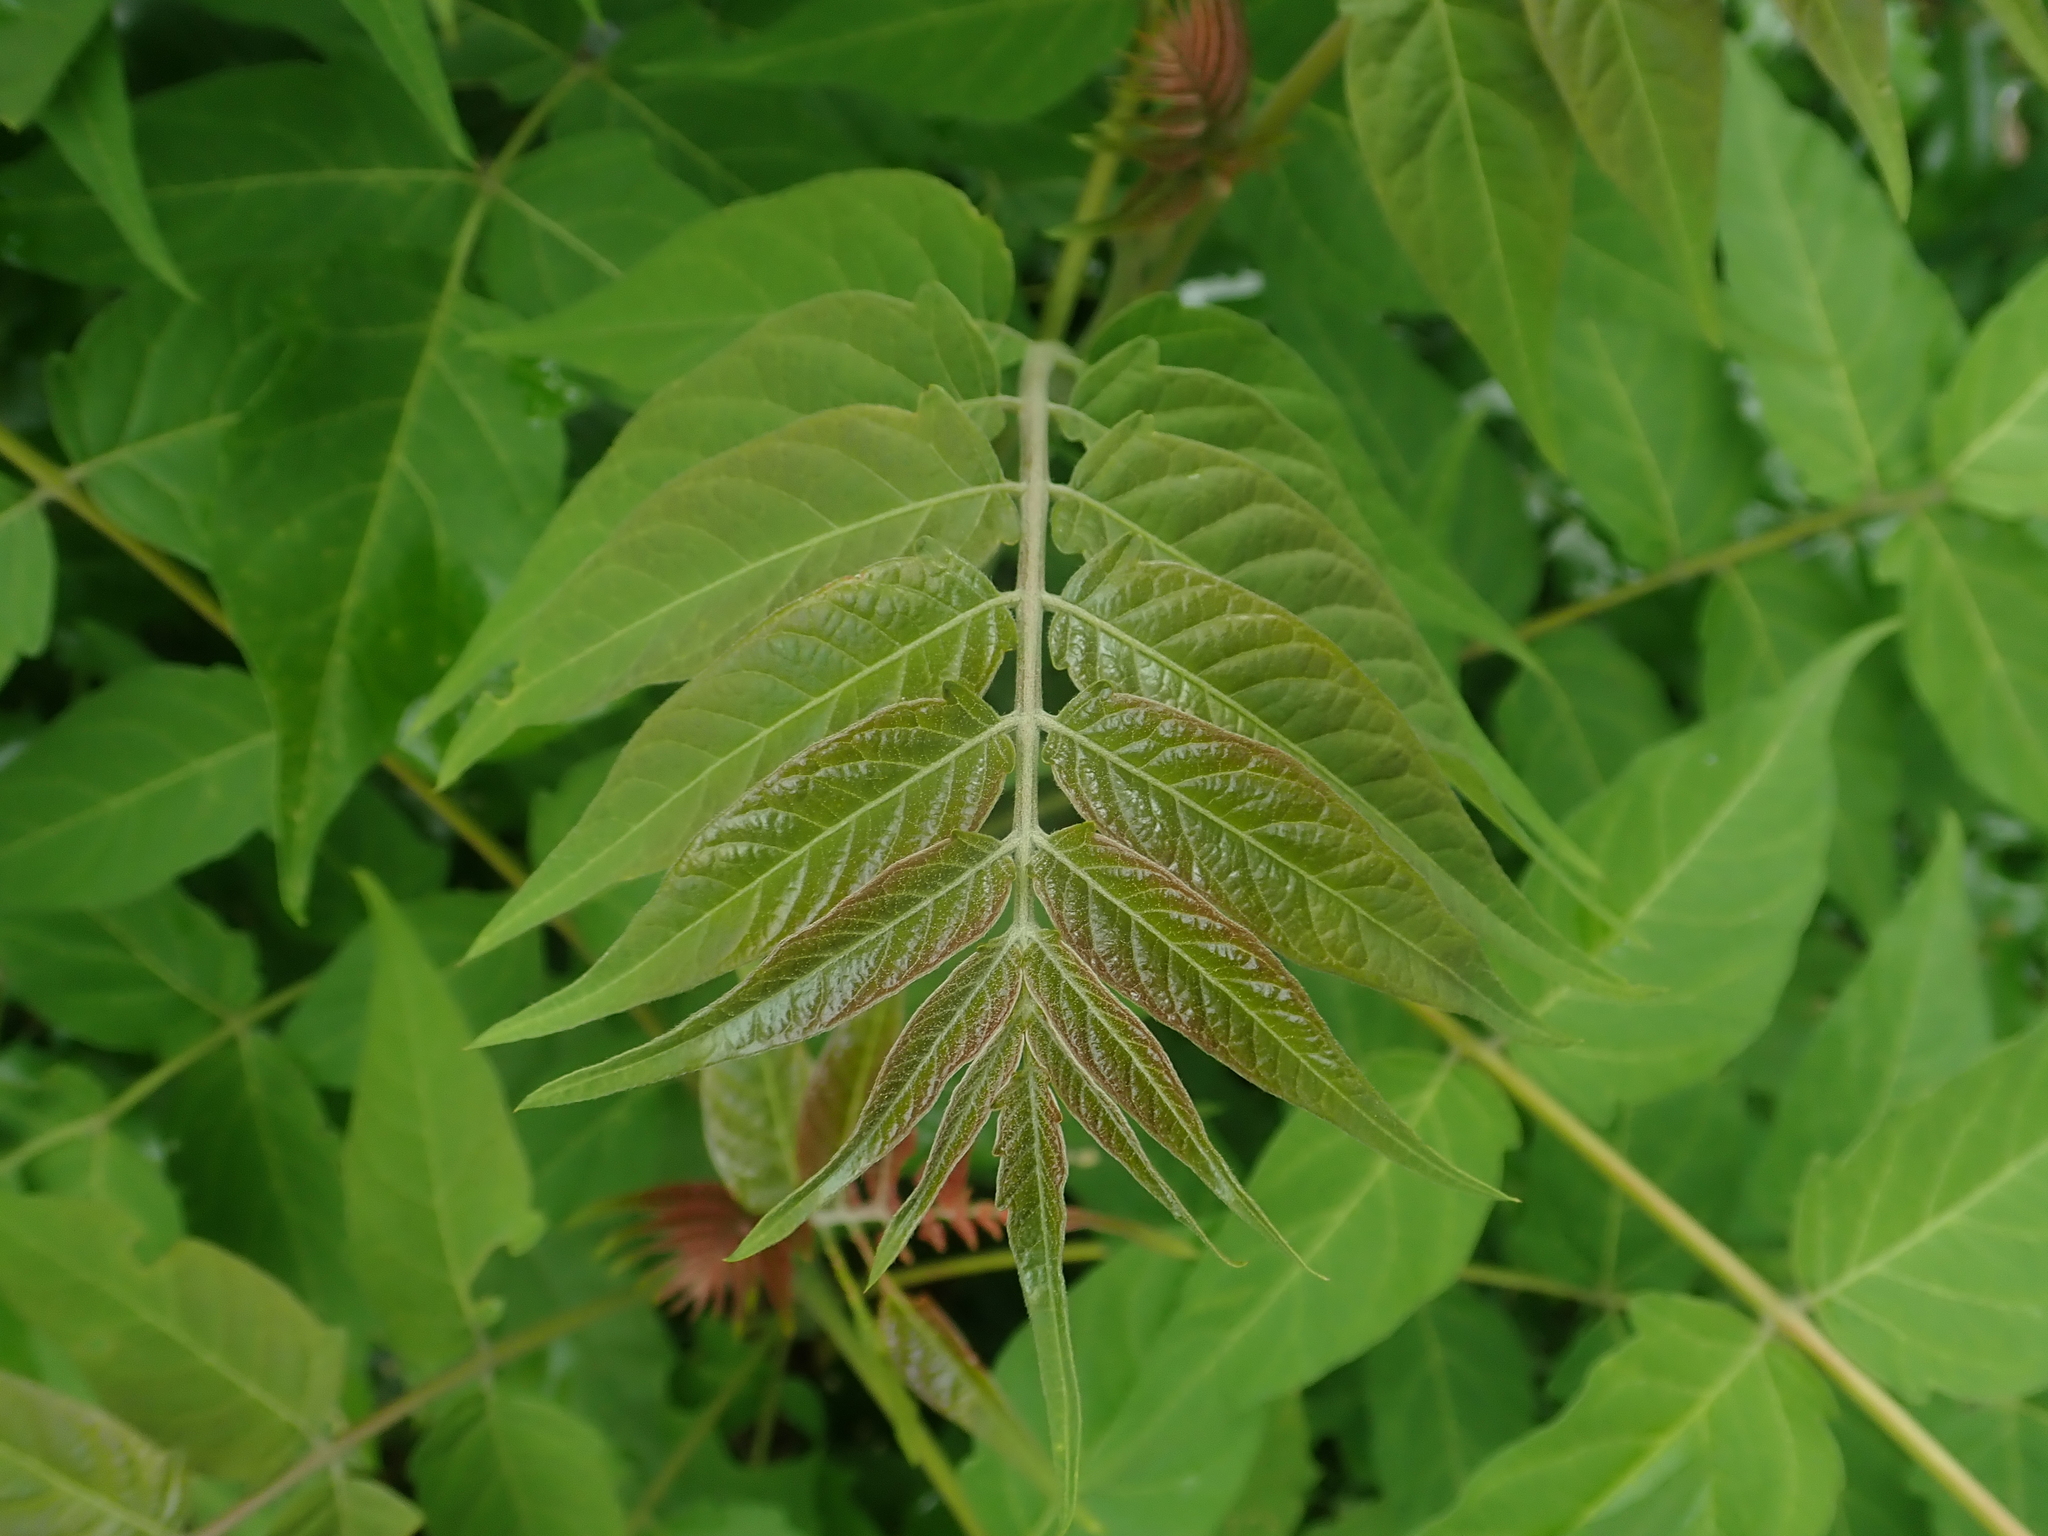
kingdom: Plantae
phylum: Tracheophyta
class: Magnoliopsida
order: Sapindales
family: Simaroubaceae
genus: Ailanthus
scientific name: Ailanthus altissima
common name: Tree-of-heaven
